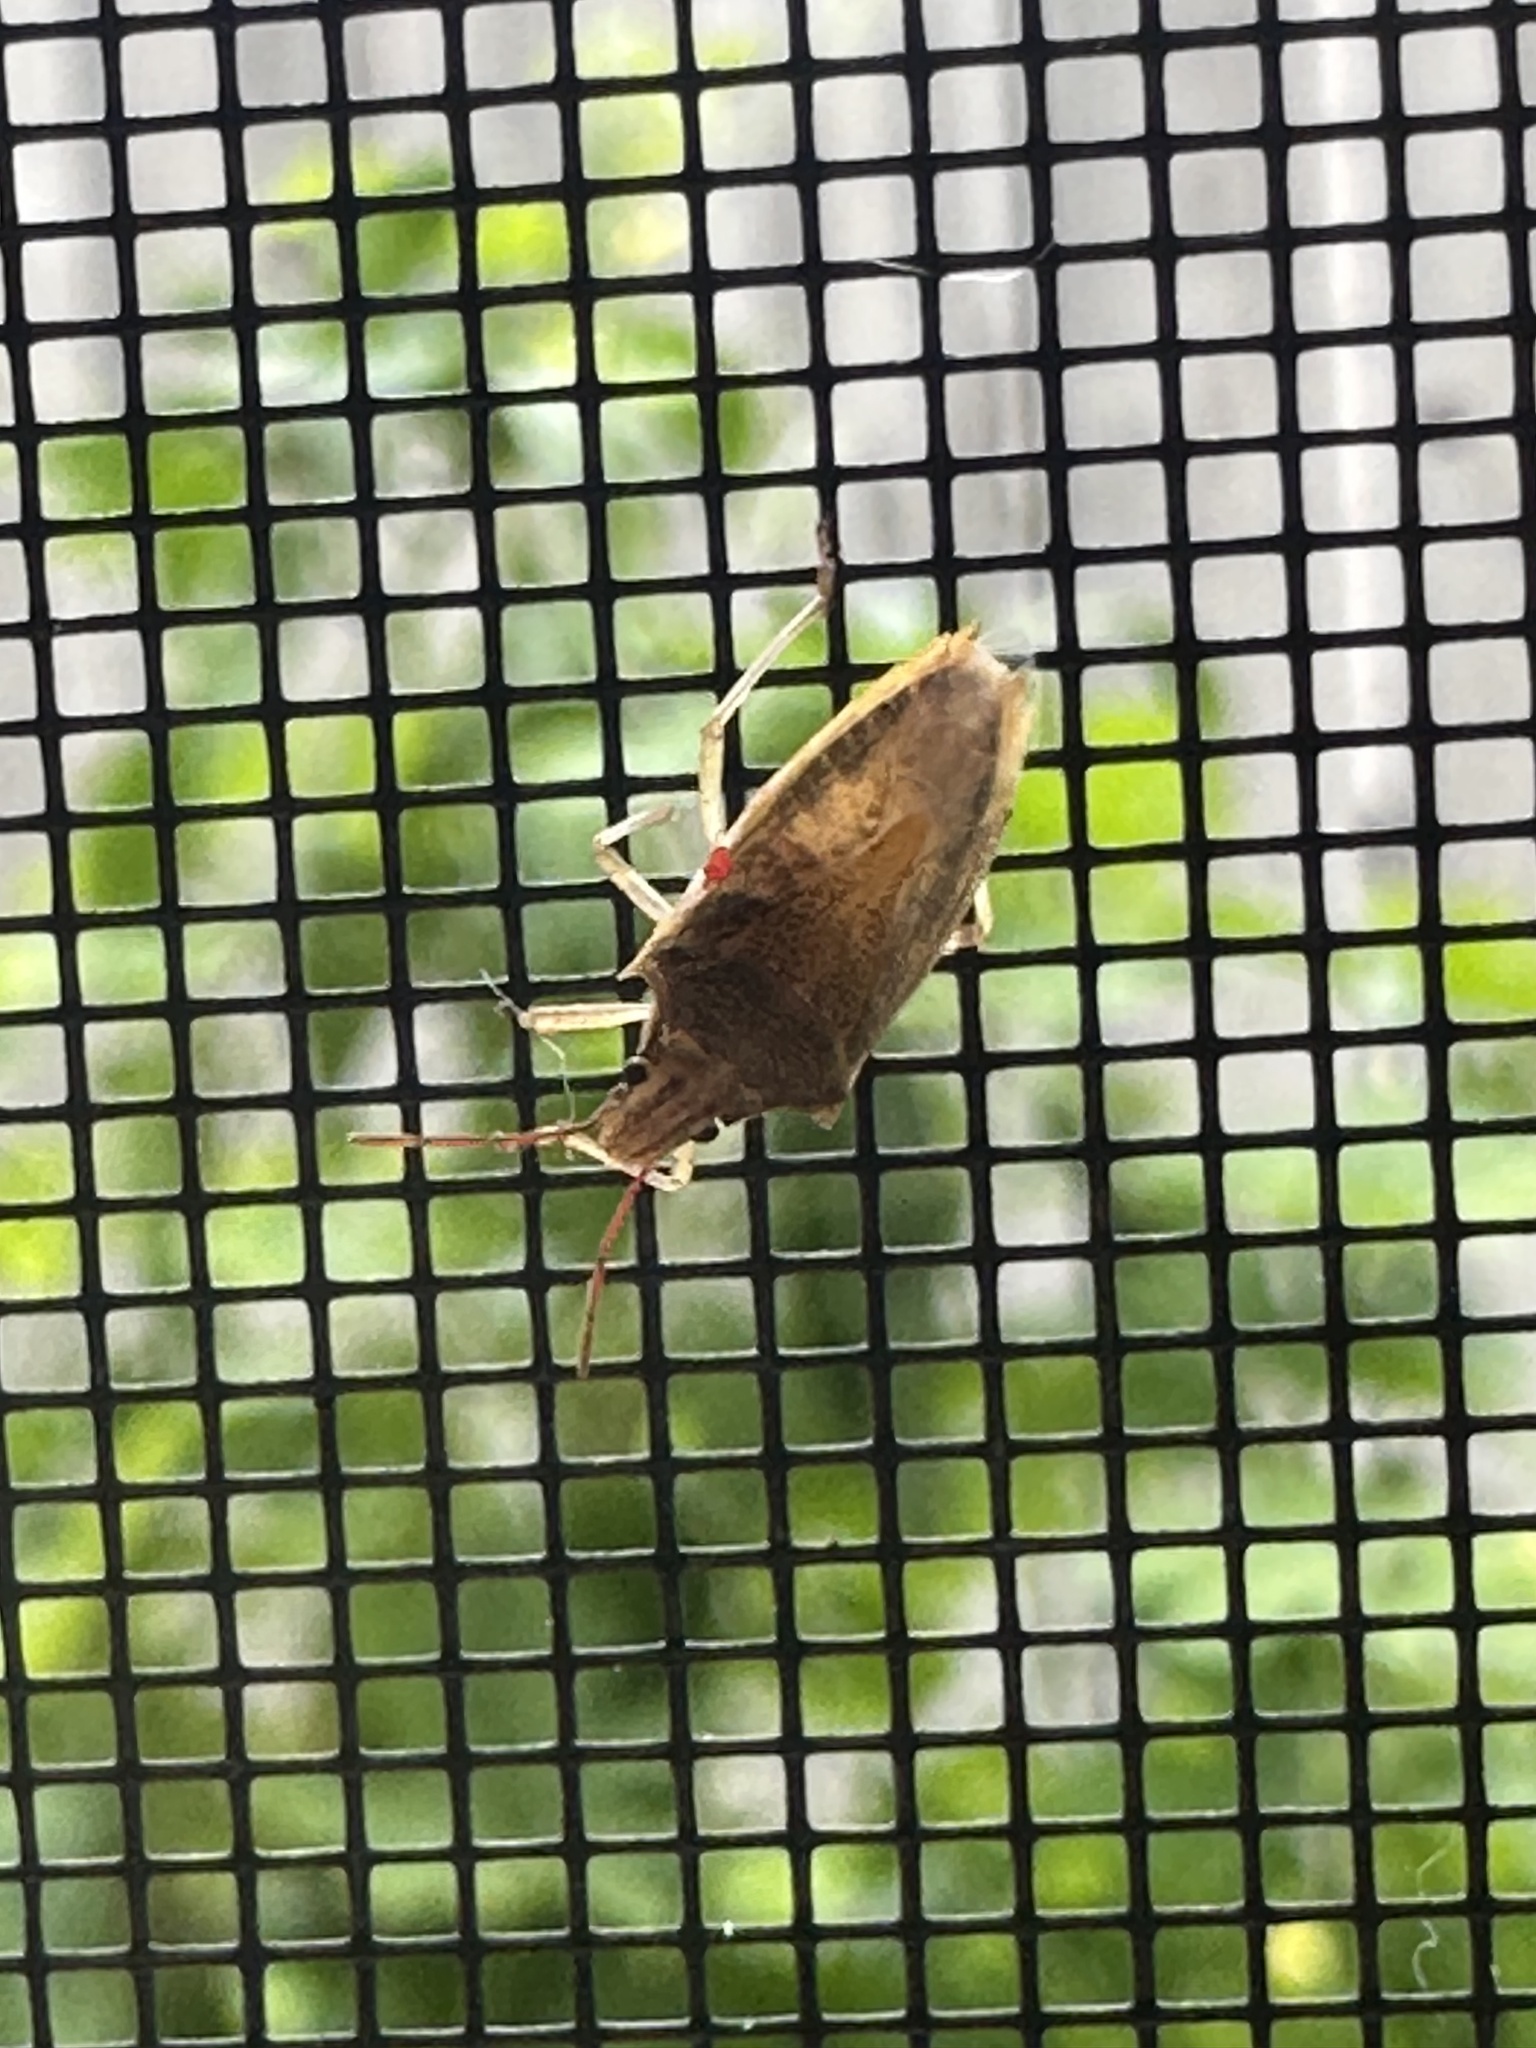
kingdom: Animalia
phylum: Arthropoda
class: Insecta
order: Hemiptera
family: Pentatomidae
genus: Oebalus
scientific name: Oebalus pugnax
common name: Rice stink bug
